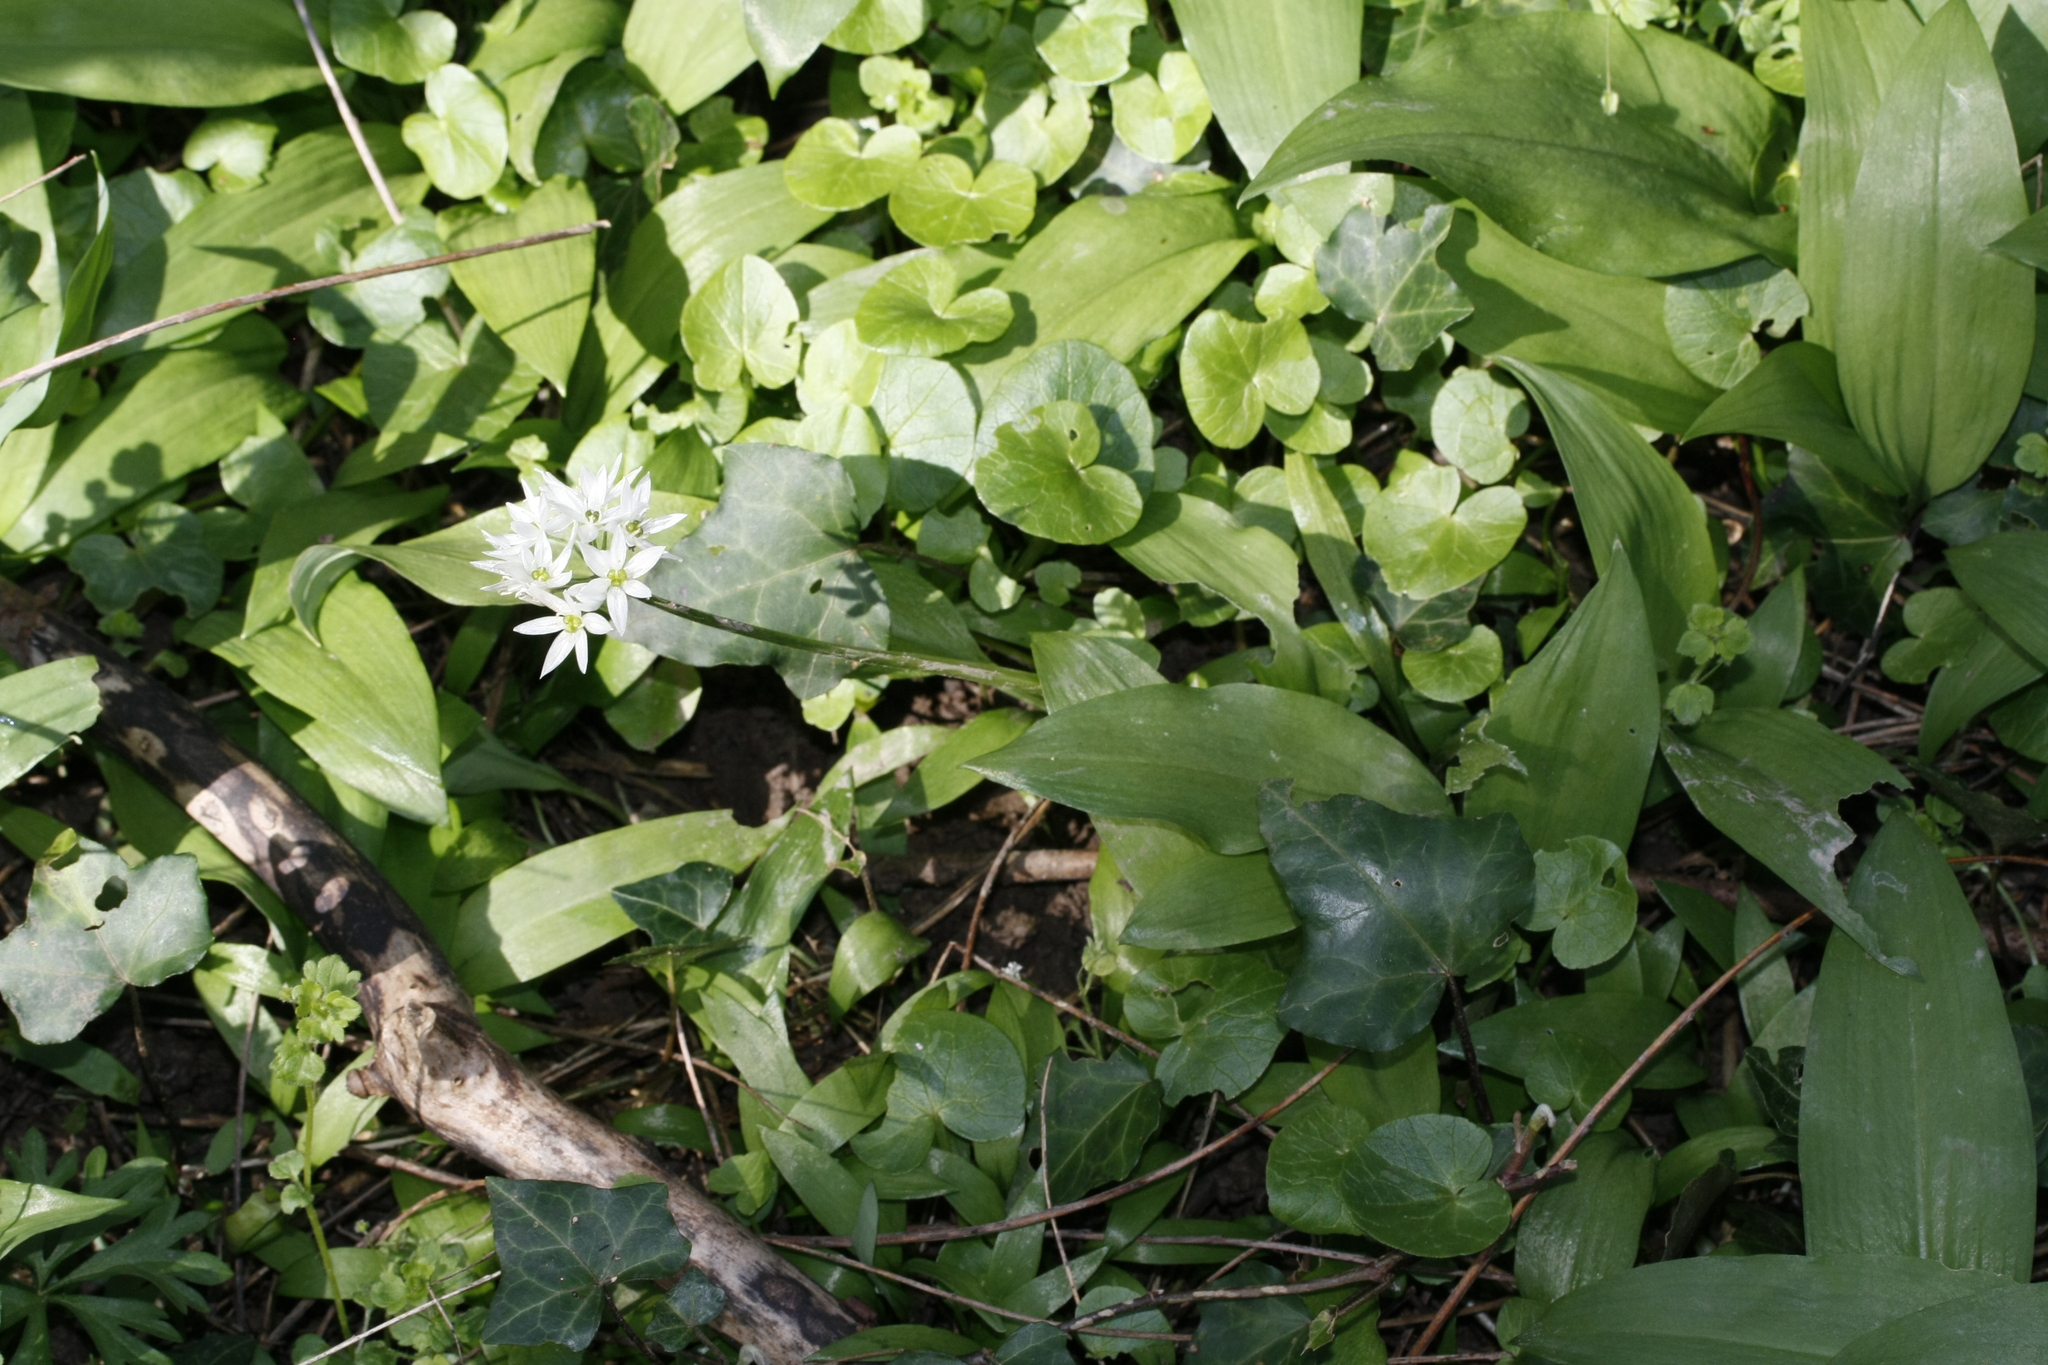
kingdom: Plantae
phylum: Tracheophyta
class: Liliopsida
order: Asparagales
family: Amaryllidaceae
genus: Allium
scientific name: Allium ursinum
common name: Ramsons
